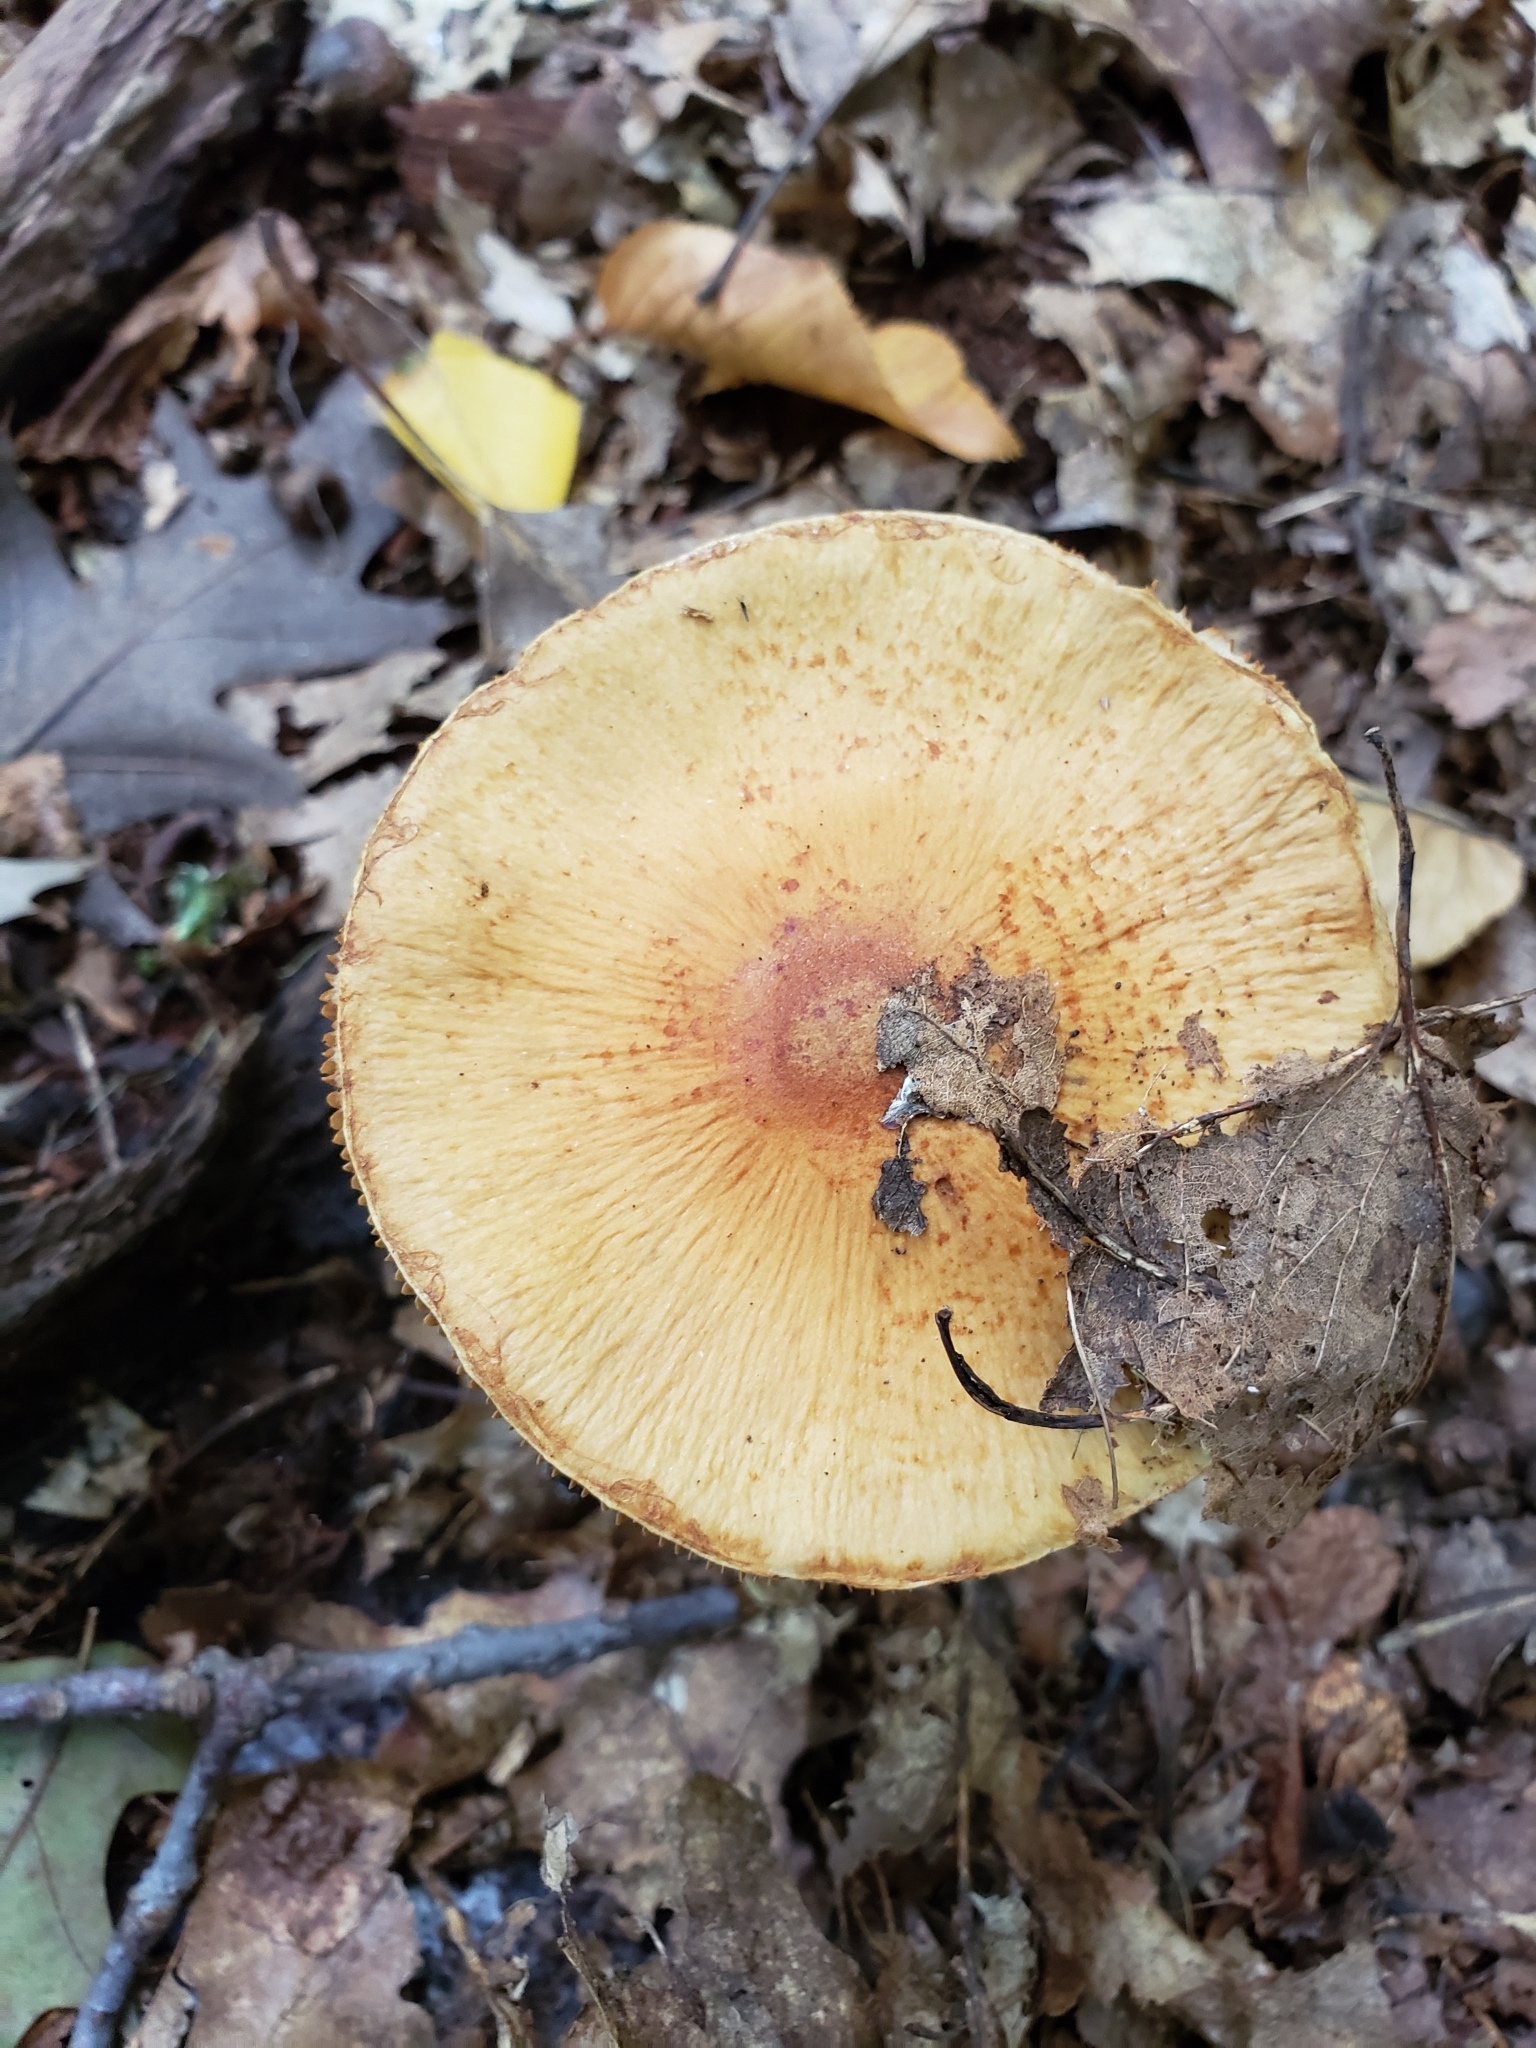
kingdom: Fungi
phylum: Basidiomycota
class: Agaricomycetes
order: Agaricales
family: Cortinariaceae
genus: Cortinarius
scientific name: Cortinarius corrugatus
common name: Wrinkled cortinarius
